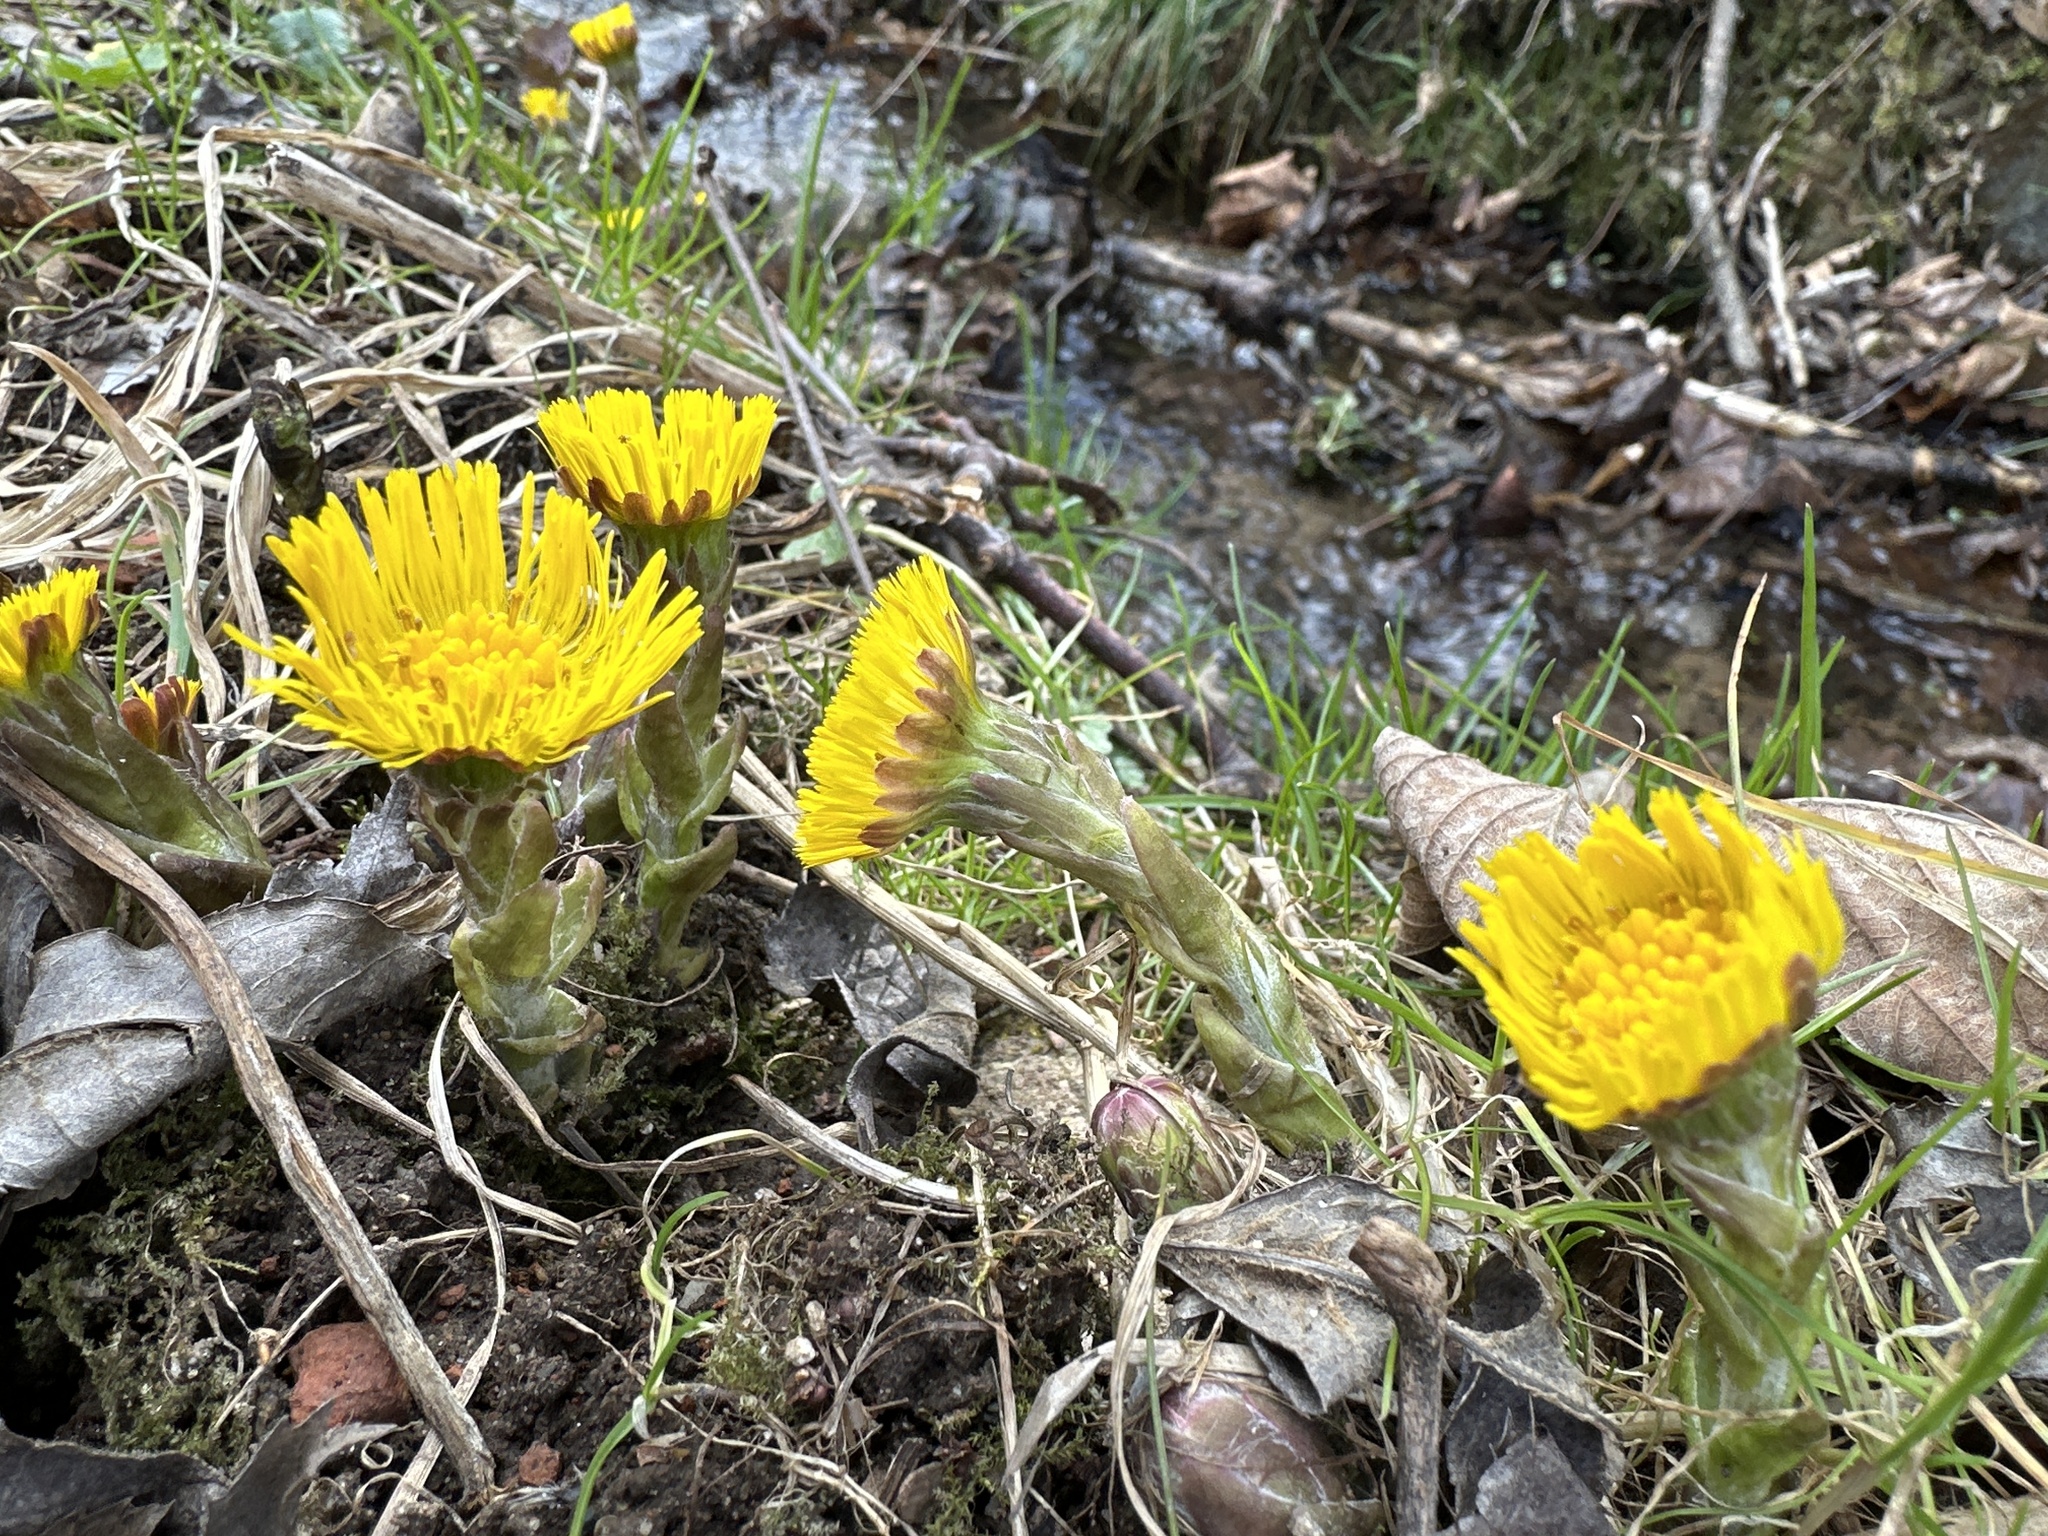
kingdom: Plantae
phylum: Tracheophyta
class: Magnoliopsida
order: Asterales
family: Asteraceae
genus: Tussilago
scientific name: Tussilago farfara
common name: Coltsfoot
